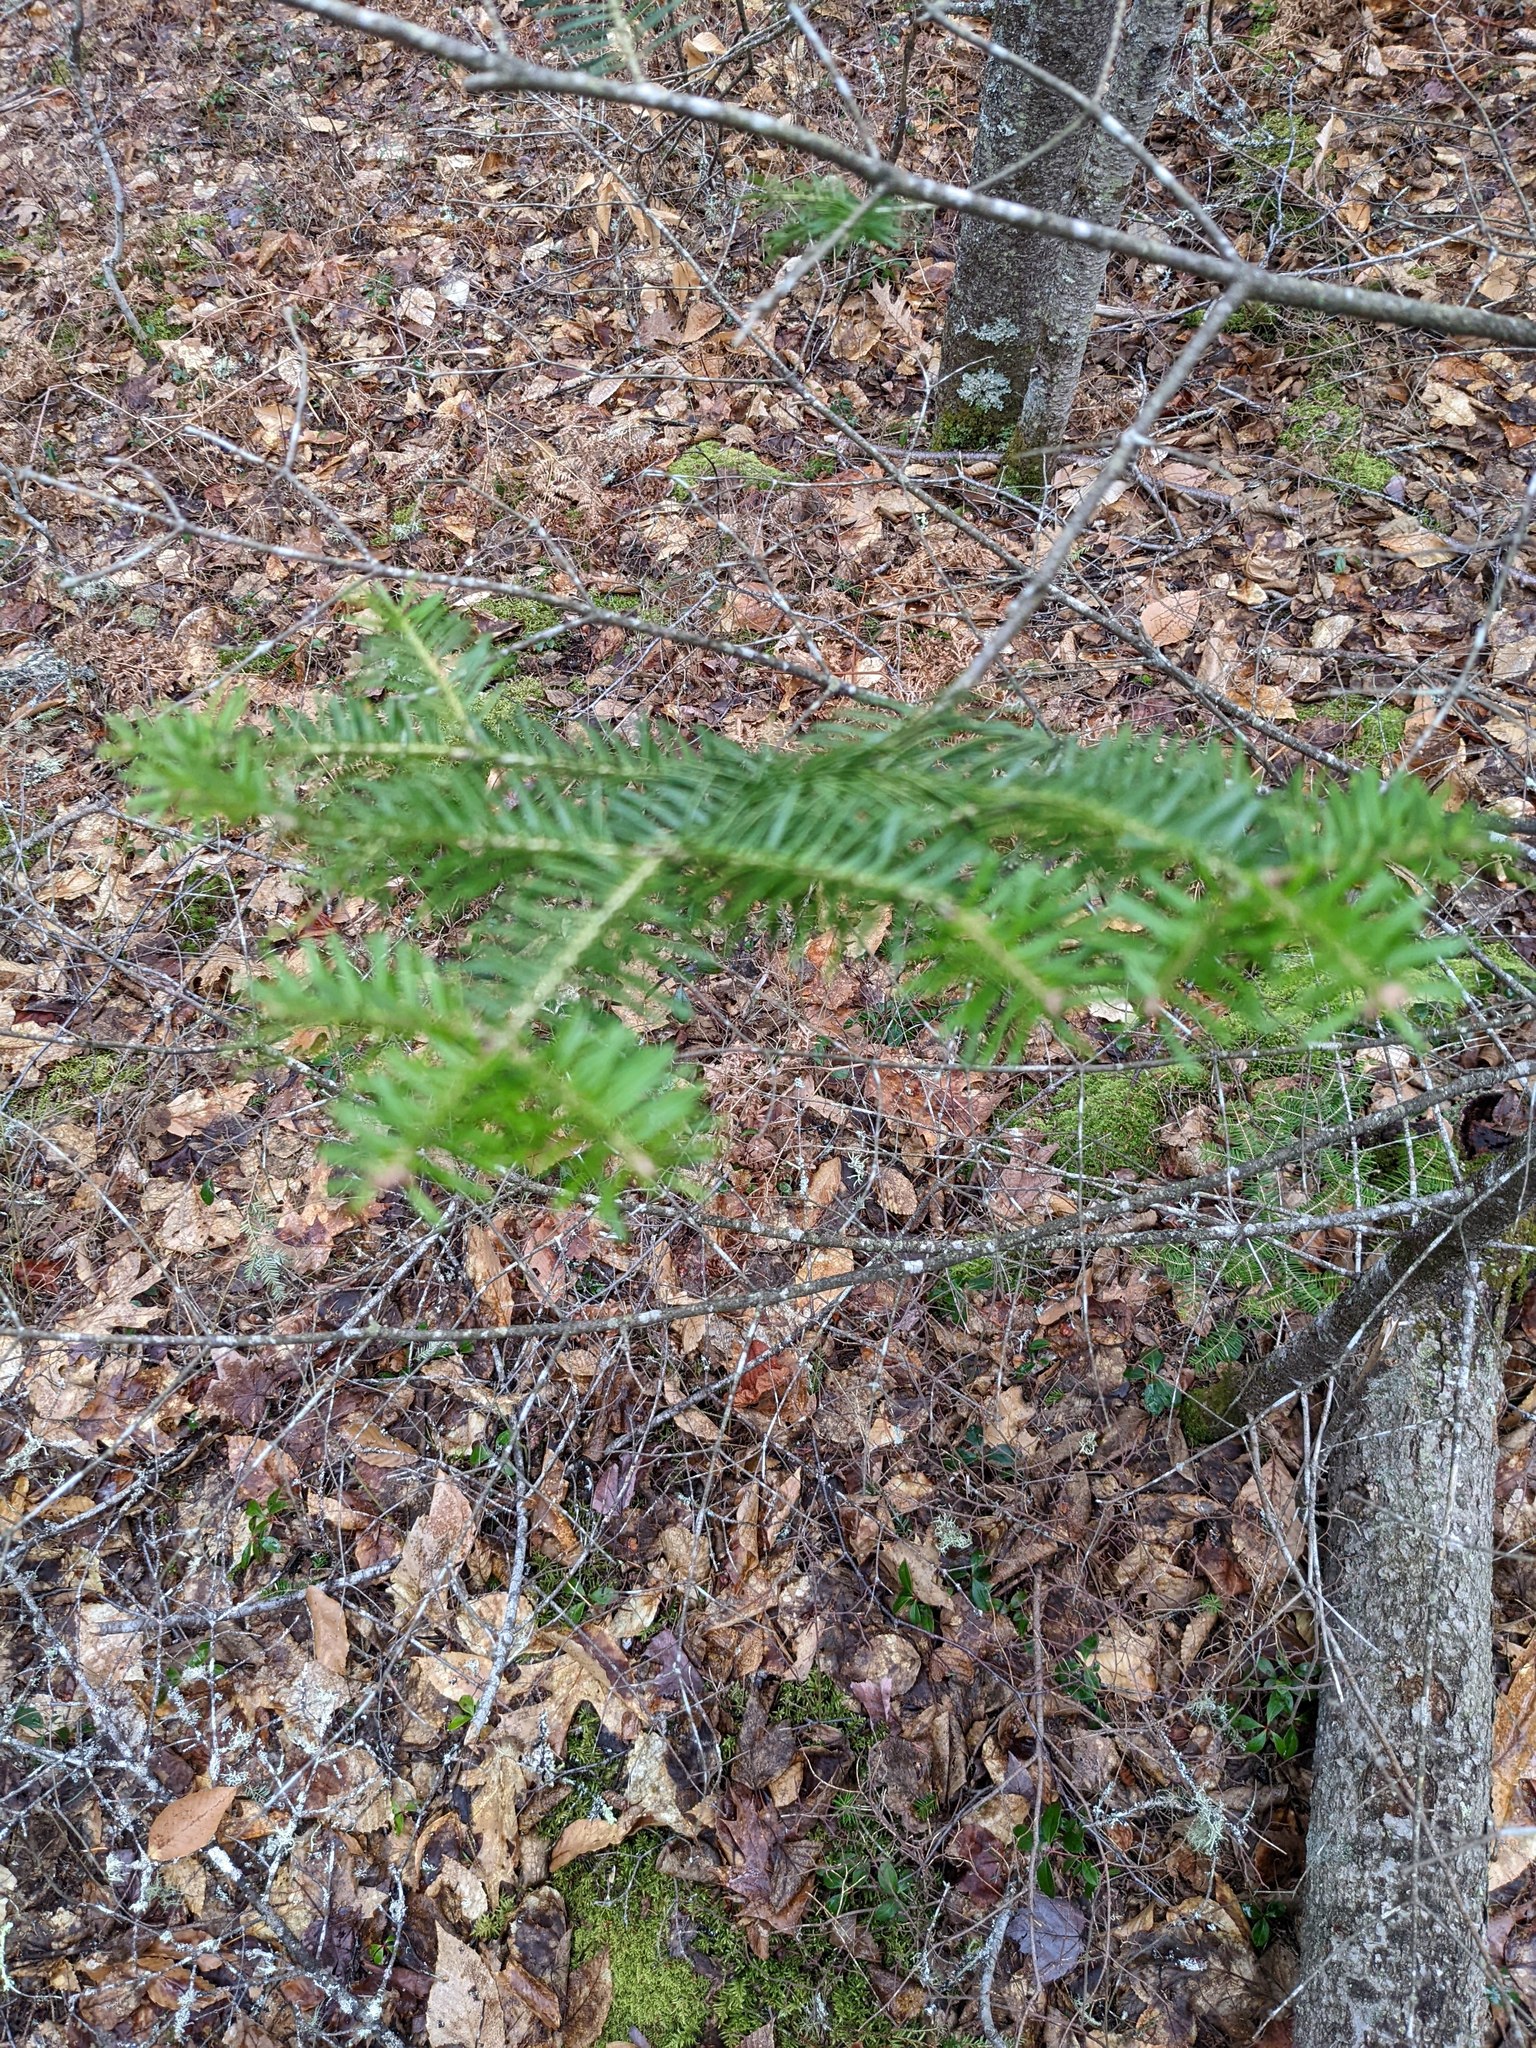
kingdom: Plantae
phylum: Tracheophyta
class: Pinopsida
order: Pinales
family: Pinaceae
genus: Abies
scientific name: Abies balsamea
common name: Balsam fir
